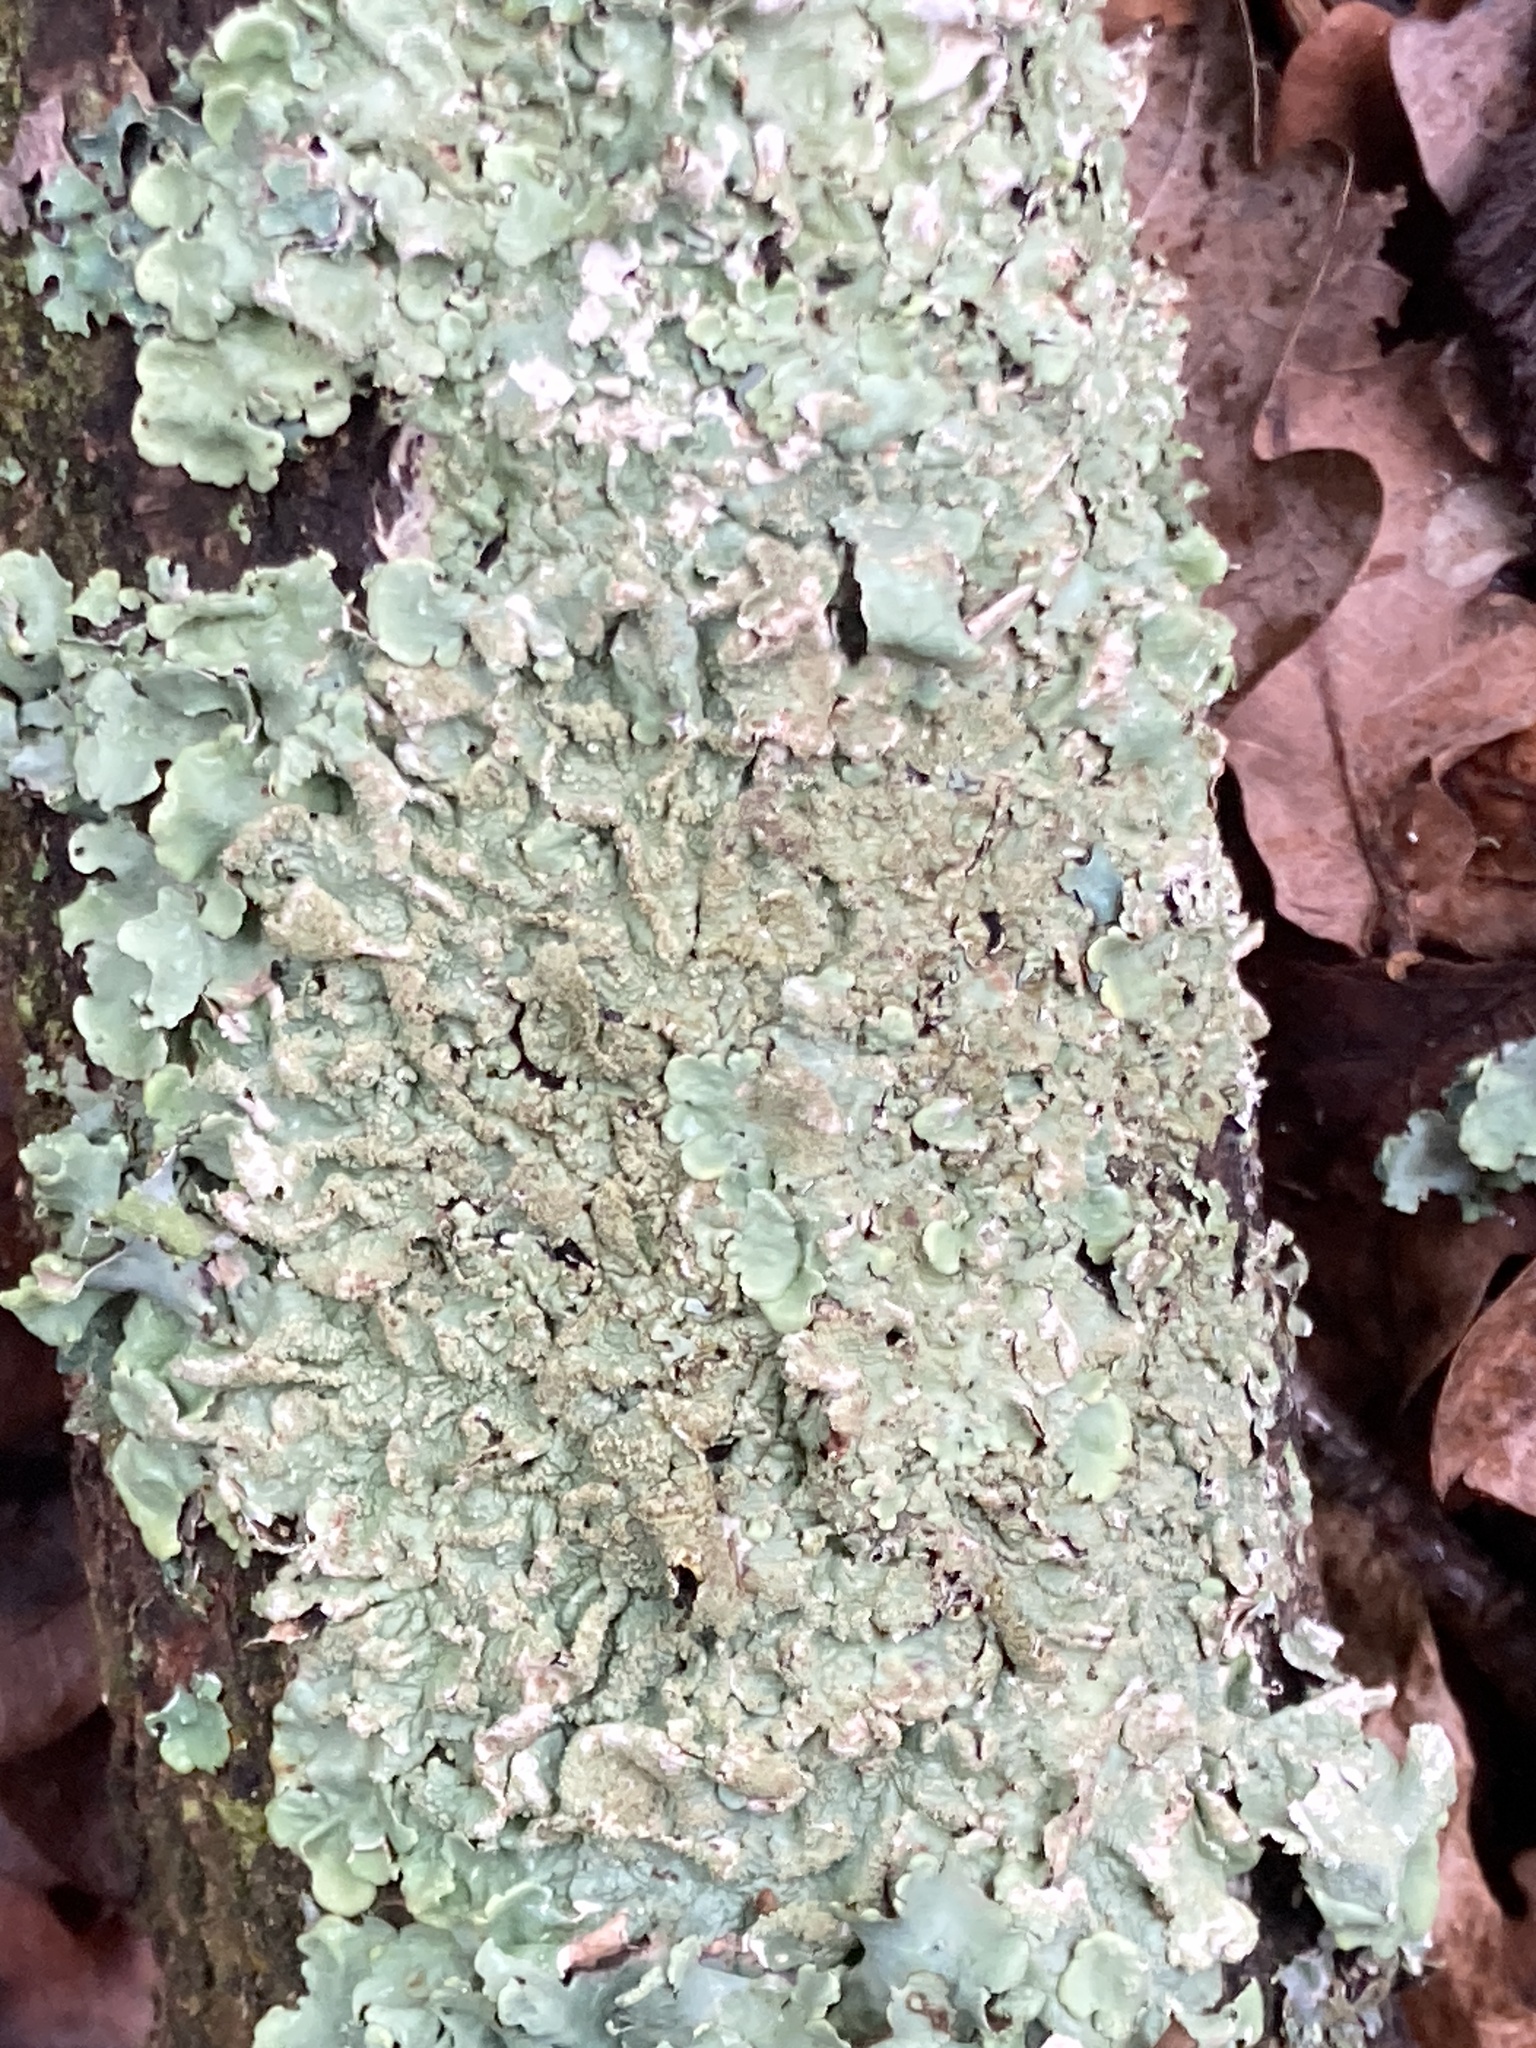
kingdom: Fungi
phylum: Ascomycota
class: Lecanoromycetes
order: Lecanorales
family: Parmeliaceae
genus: Flavoparmelia
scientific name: Flavoparmelia caperata
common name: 40-mile per hour lichen
